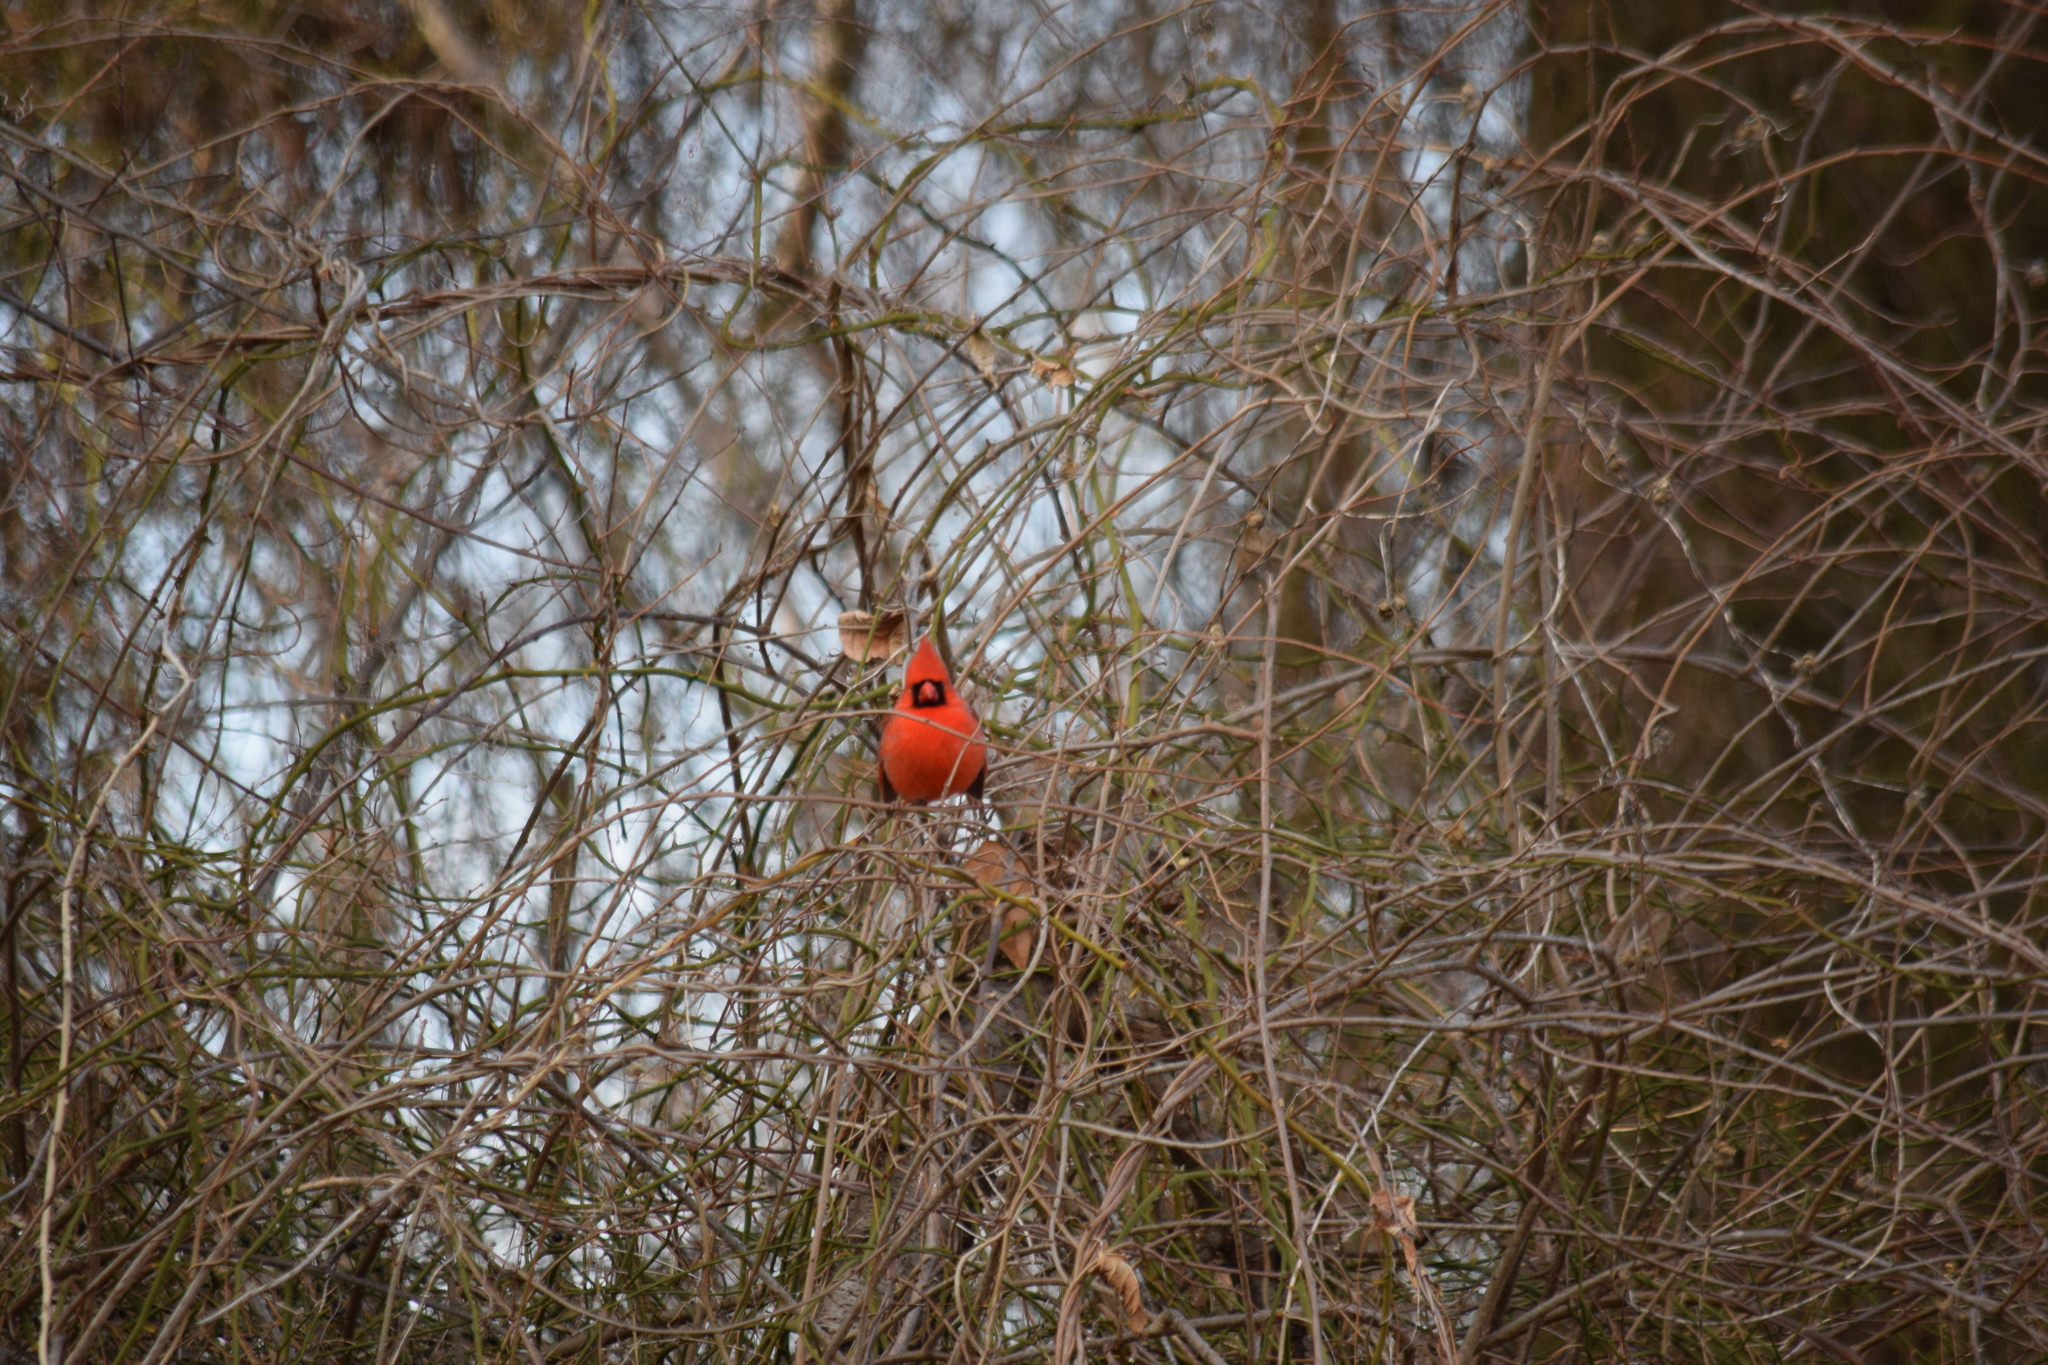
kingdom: Animalia
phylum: Chordata
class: Aves
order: Passeriformes
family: Cardinalidae
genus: Cardinalis
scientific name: Cardinalis cardinalis
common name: Northern cardinal
